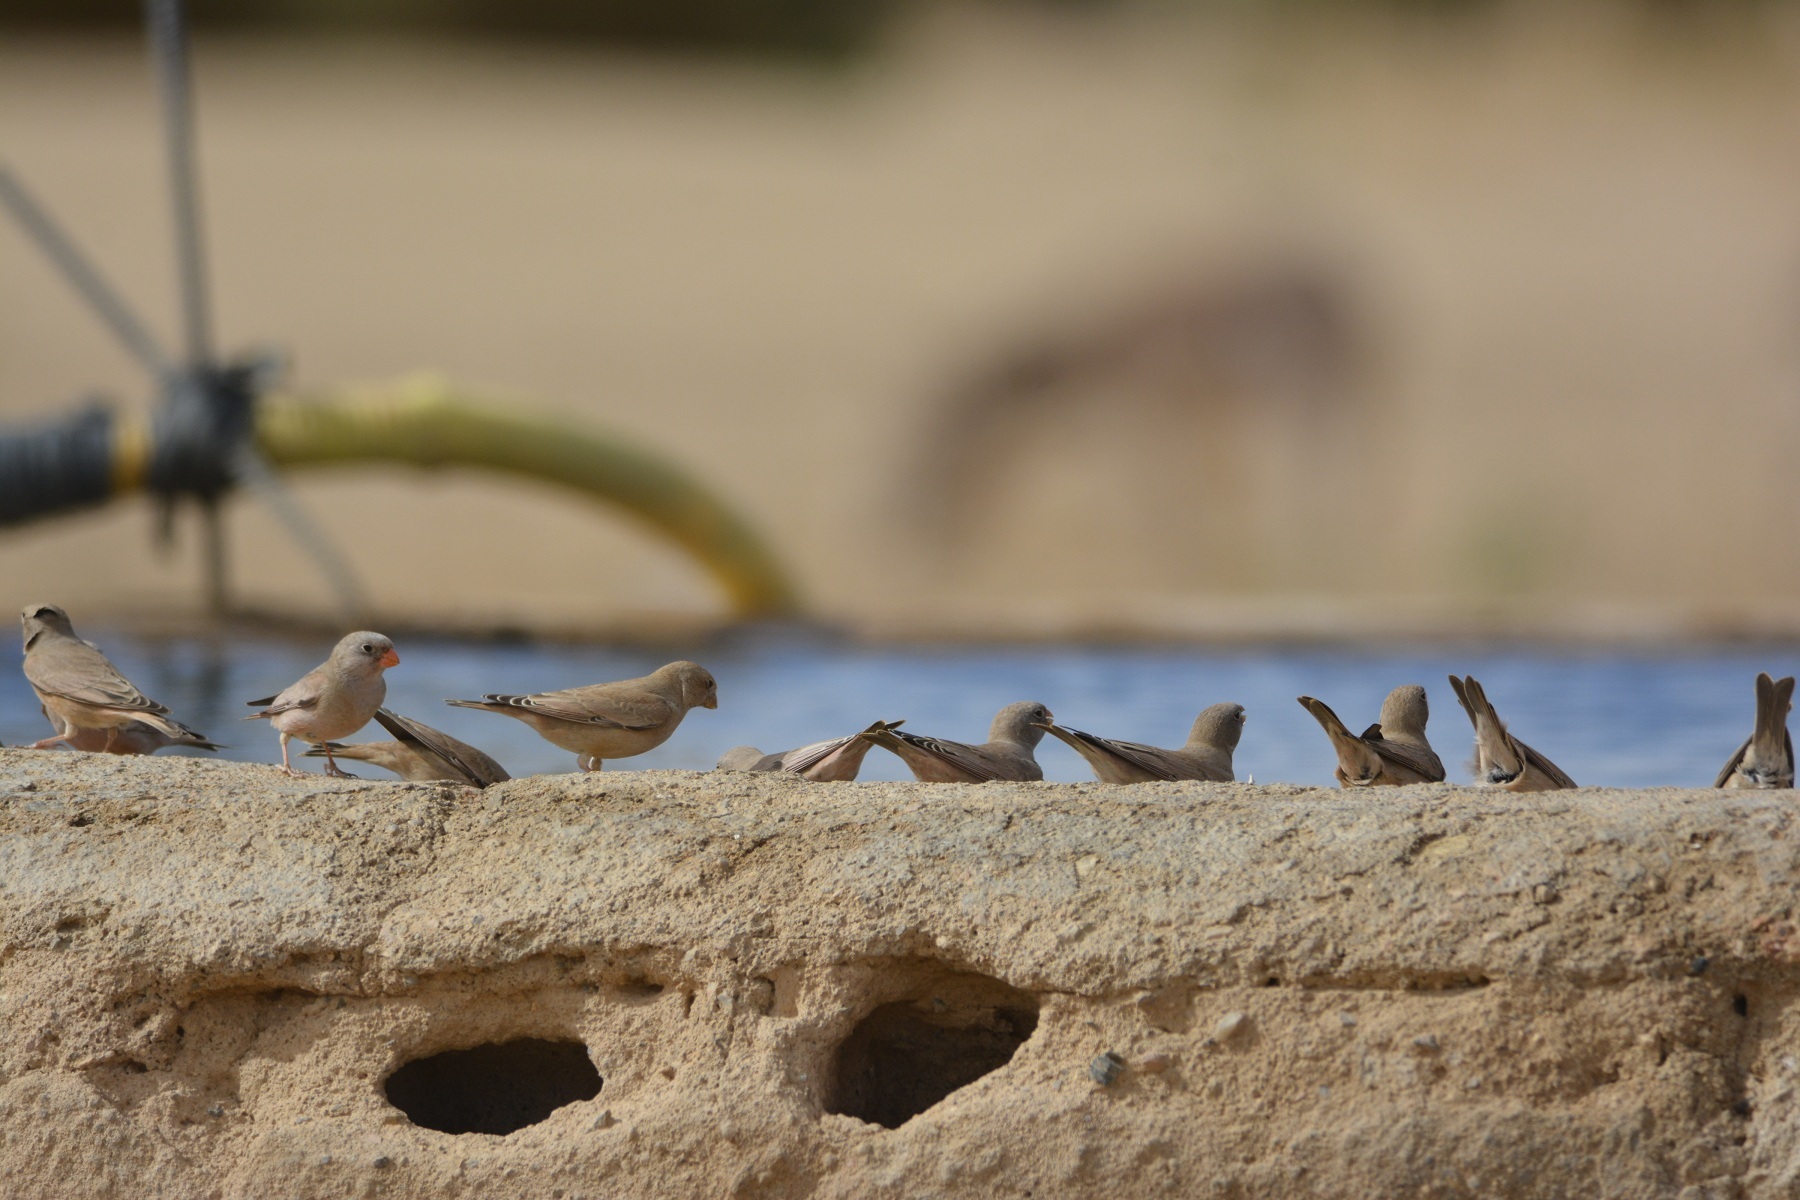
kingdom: Animalia
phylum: Chordata
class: Aves
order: Passeriformes
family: Fringillidae
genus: Bucanetes
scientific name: Bucanetes githagineus
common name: Trumpeter finch
